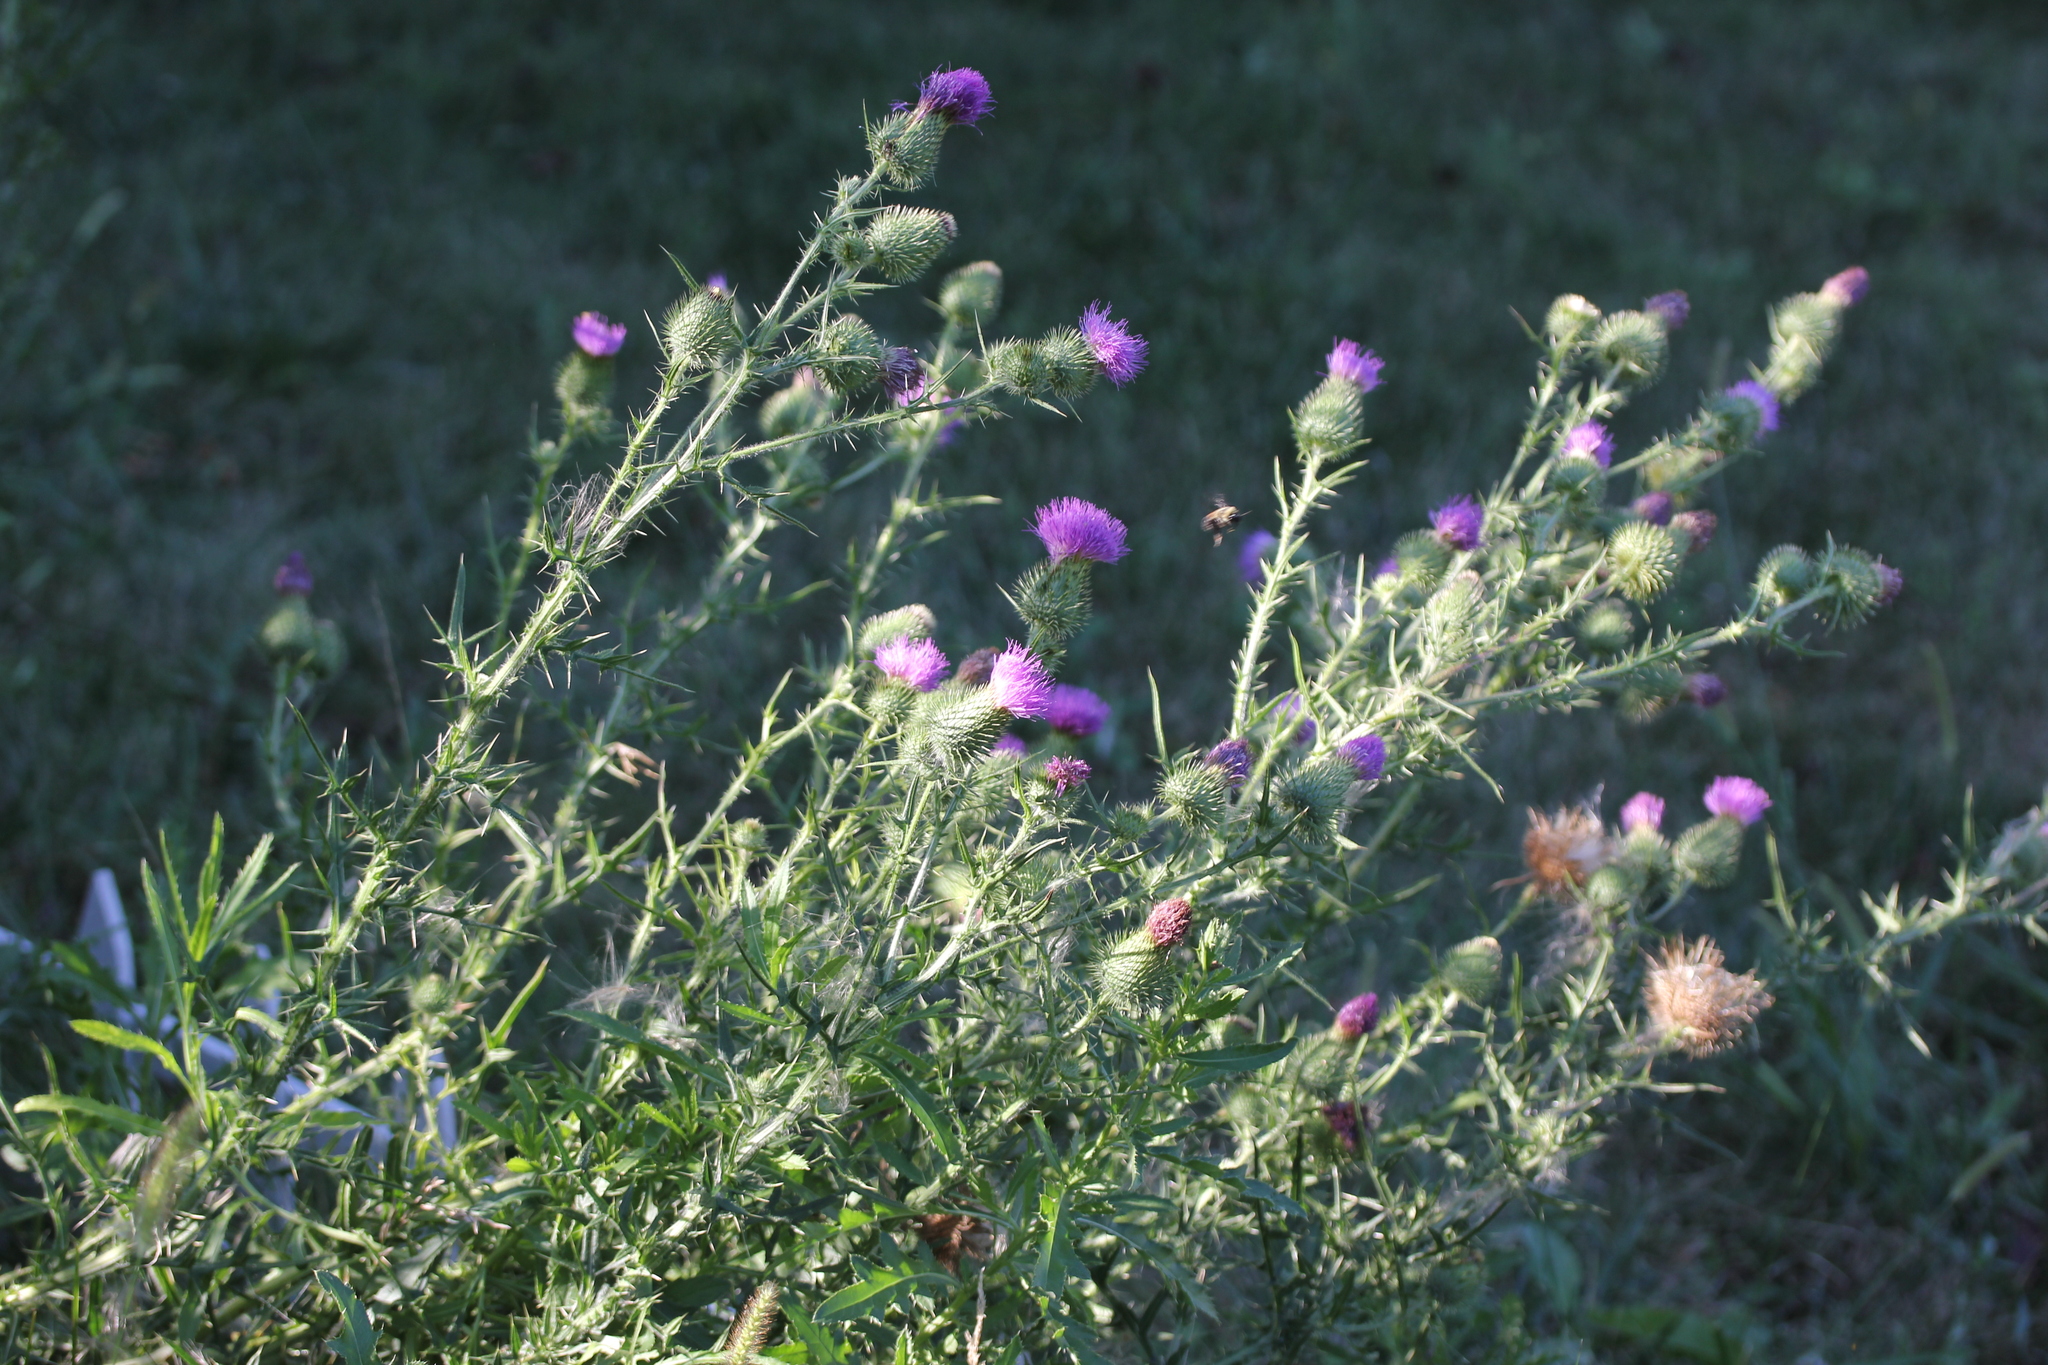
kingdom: Plantae
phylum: Tracheophyta
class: Magnoliopsida
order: Asterales
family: Asteraceae
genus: Cirsium
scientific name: Cirsium vulgare
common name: Bull thistle
